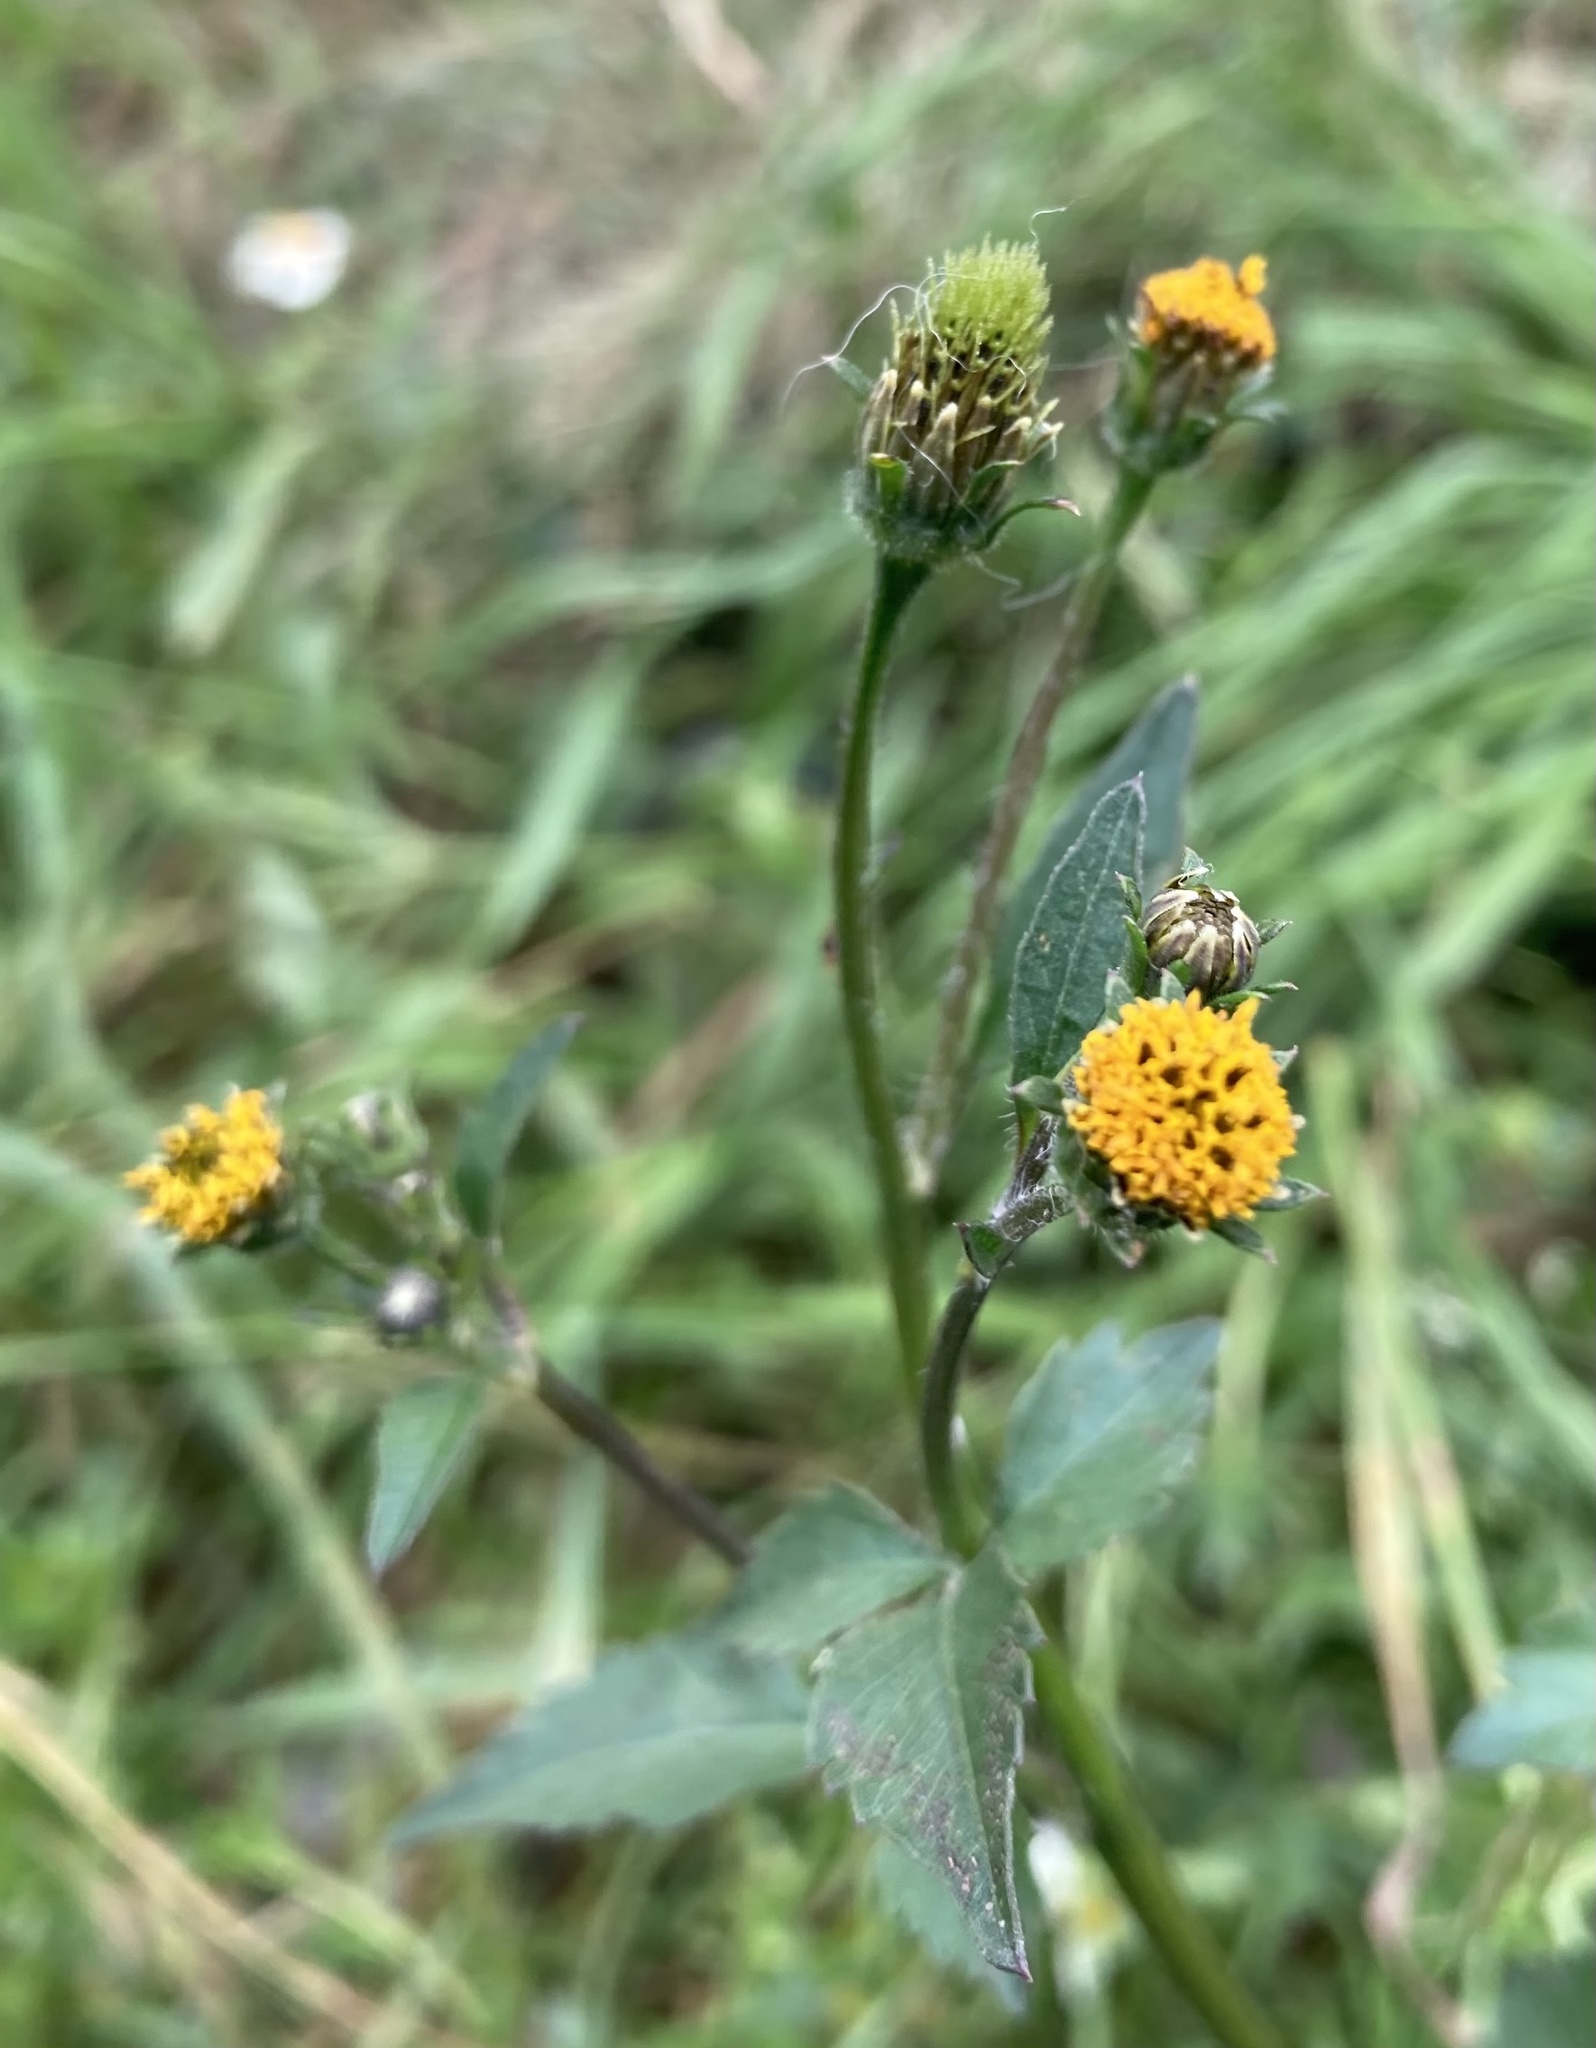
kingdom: Plantae
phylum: Tracheophyta
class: Magnoliopsida
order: Asterales
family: Asteraceae
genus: Bidens
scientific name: Bidens pilosa
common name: Black-jack
